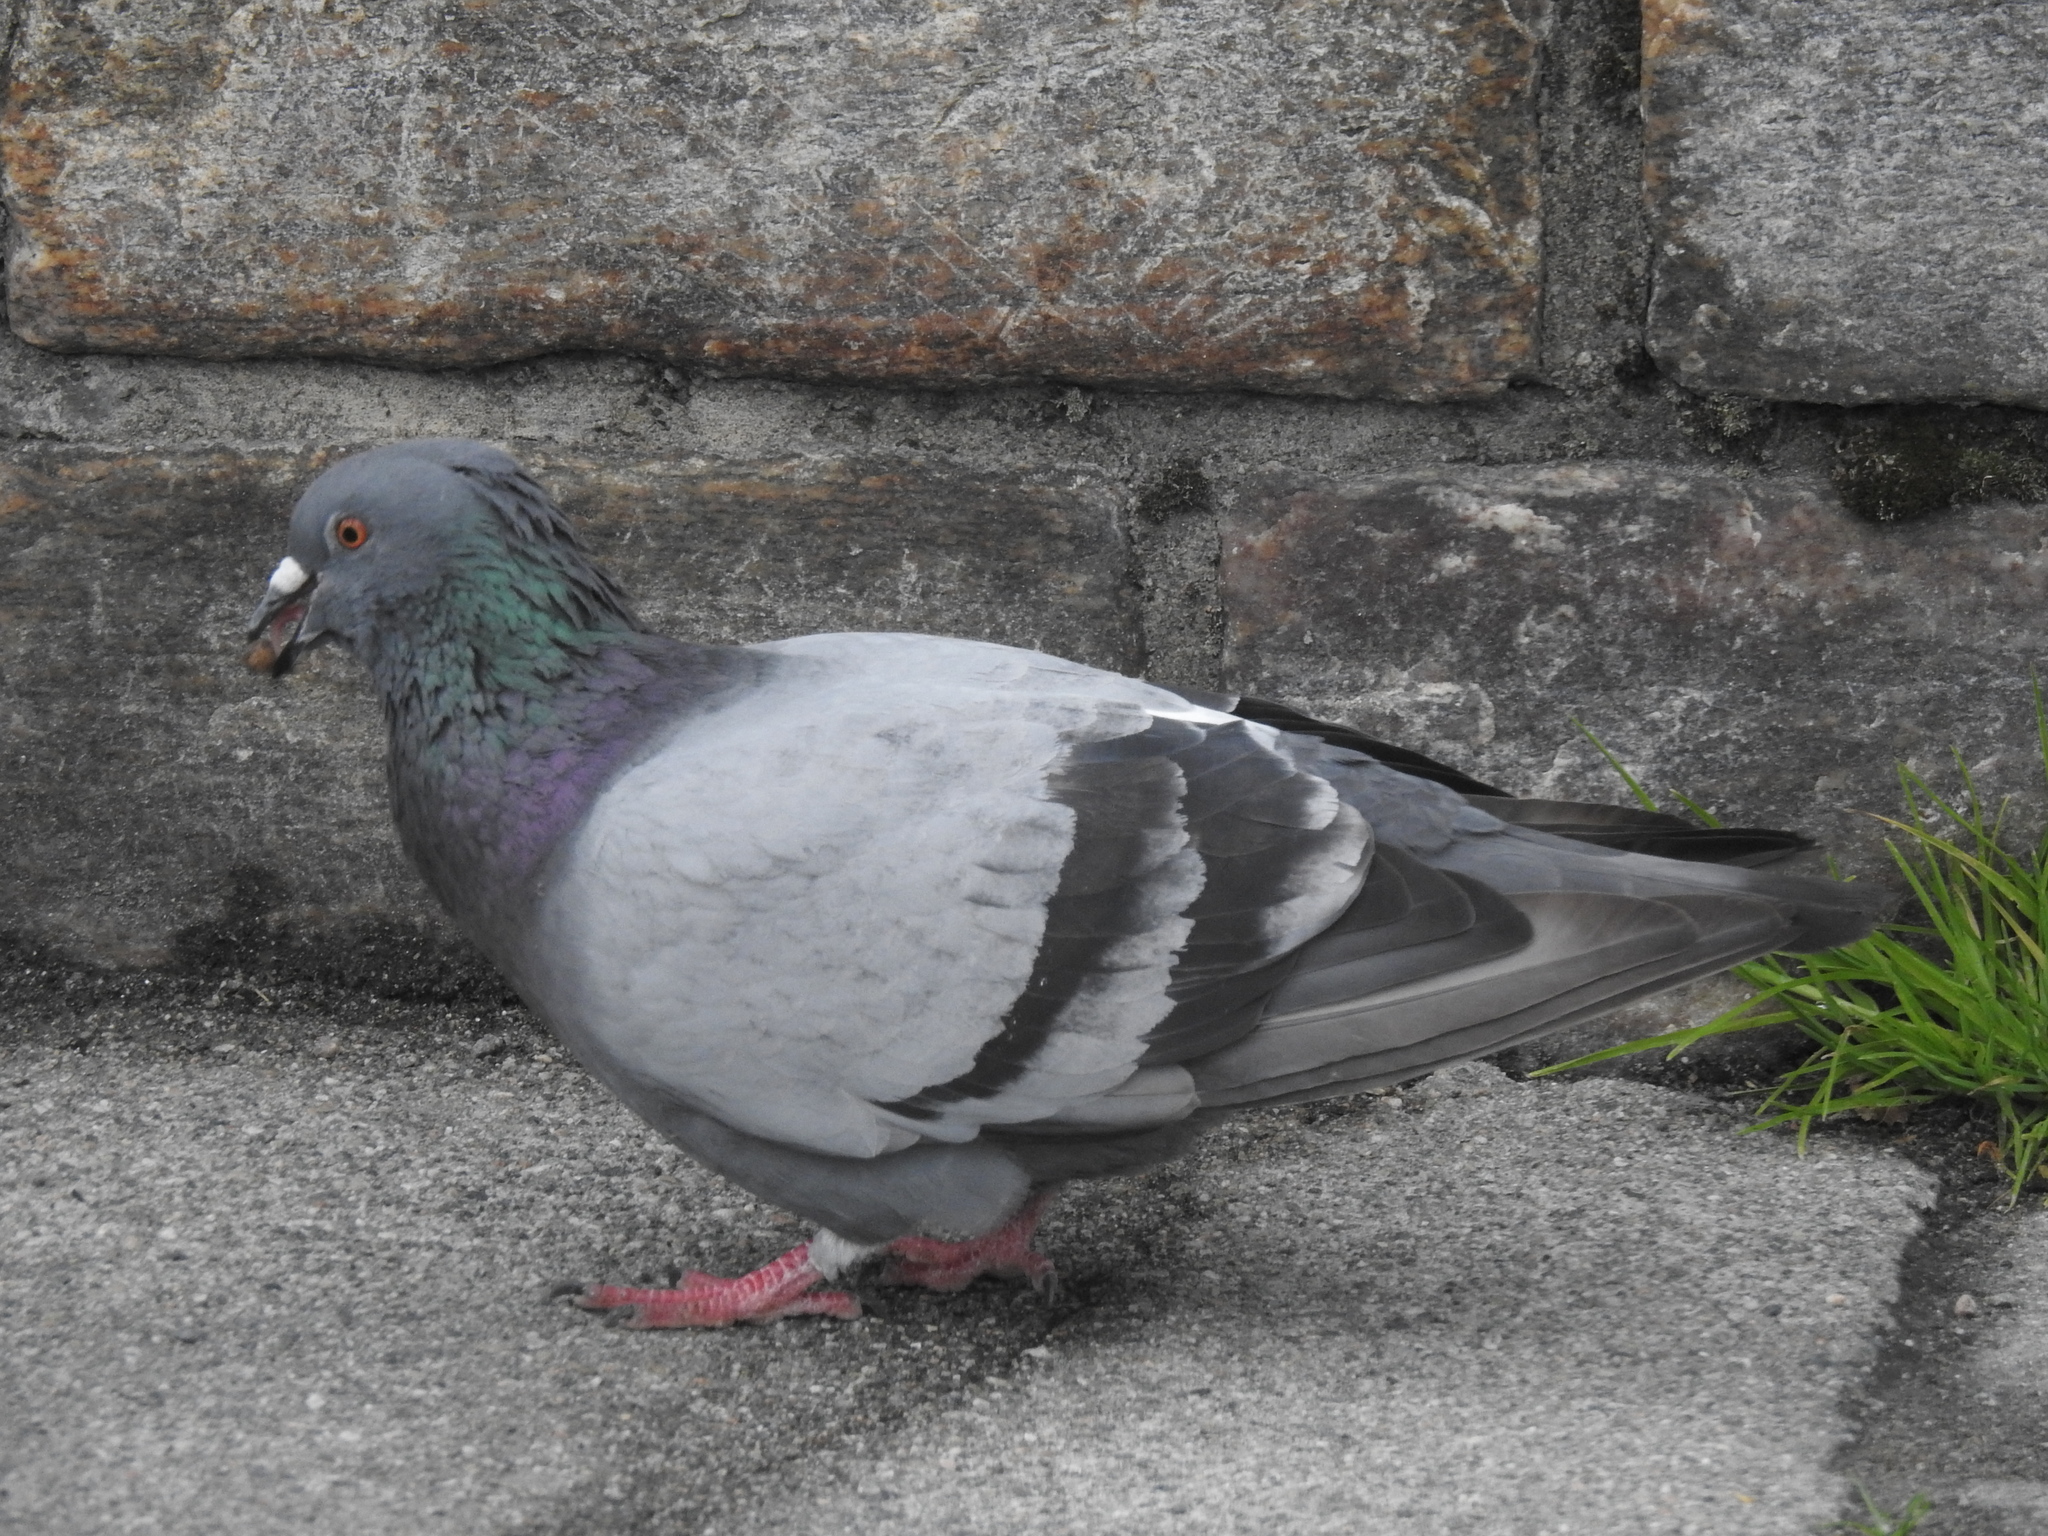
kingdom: Animalia
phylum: Chordata
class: Aves
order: Columbiformes
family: Columbidae
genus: Columba
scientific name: Columba livia
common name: Rock pigeon
